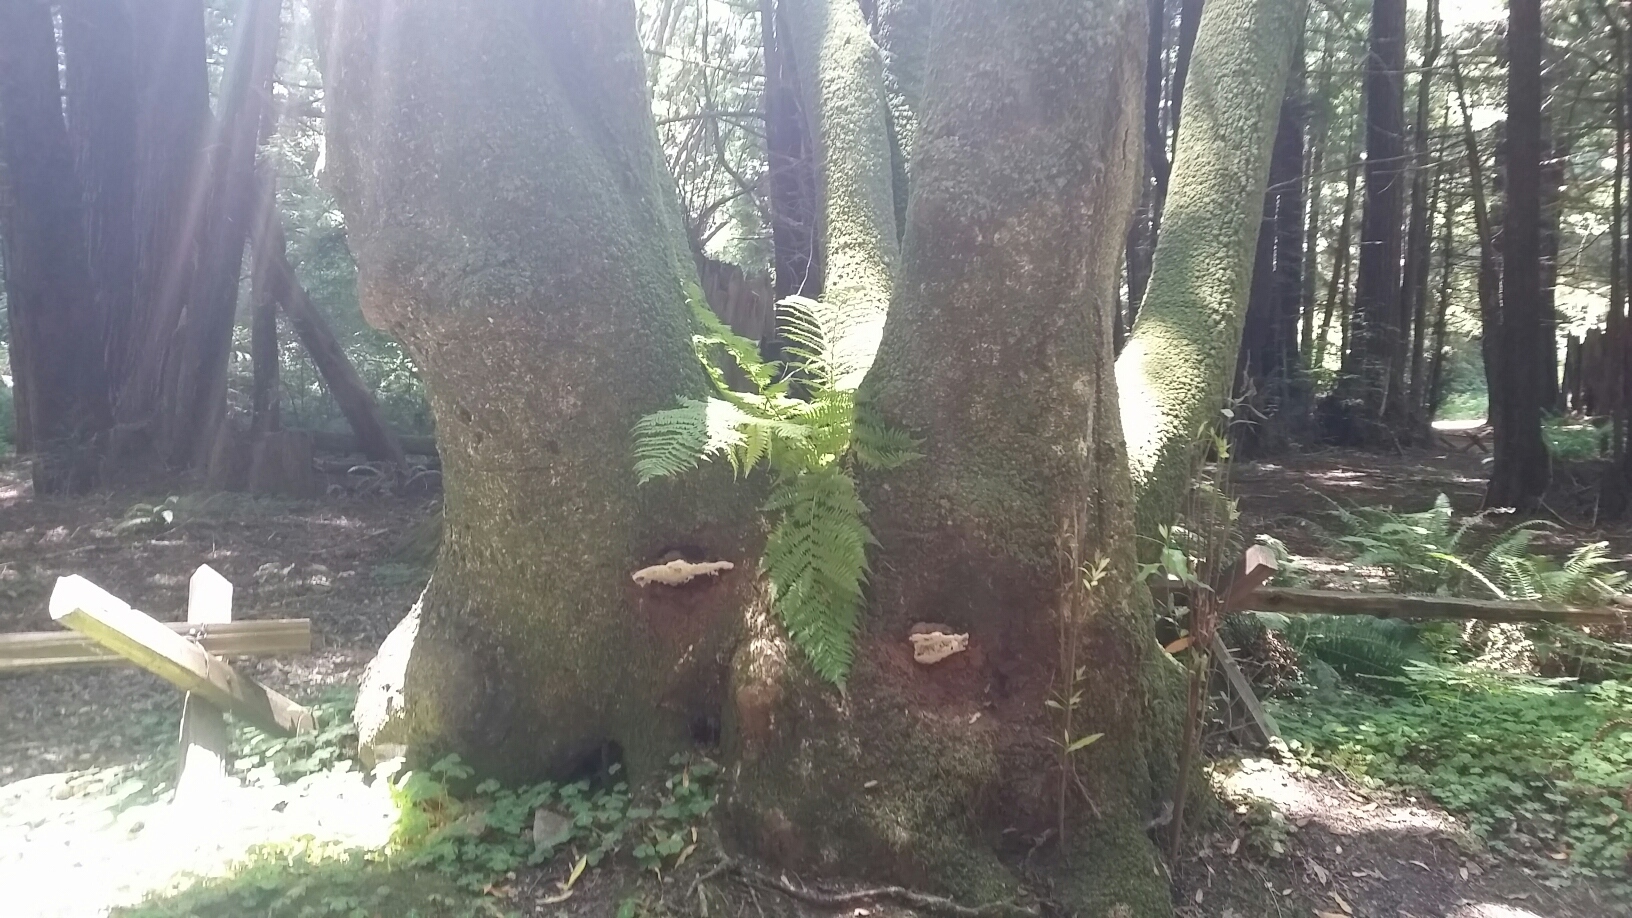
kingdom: Fungi
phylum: Basidiomycota
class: Agaricomycetes
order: Polyporales
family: Polyporaceae
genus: Ganoderma
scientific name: Ganoderma brownii
